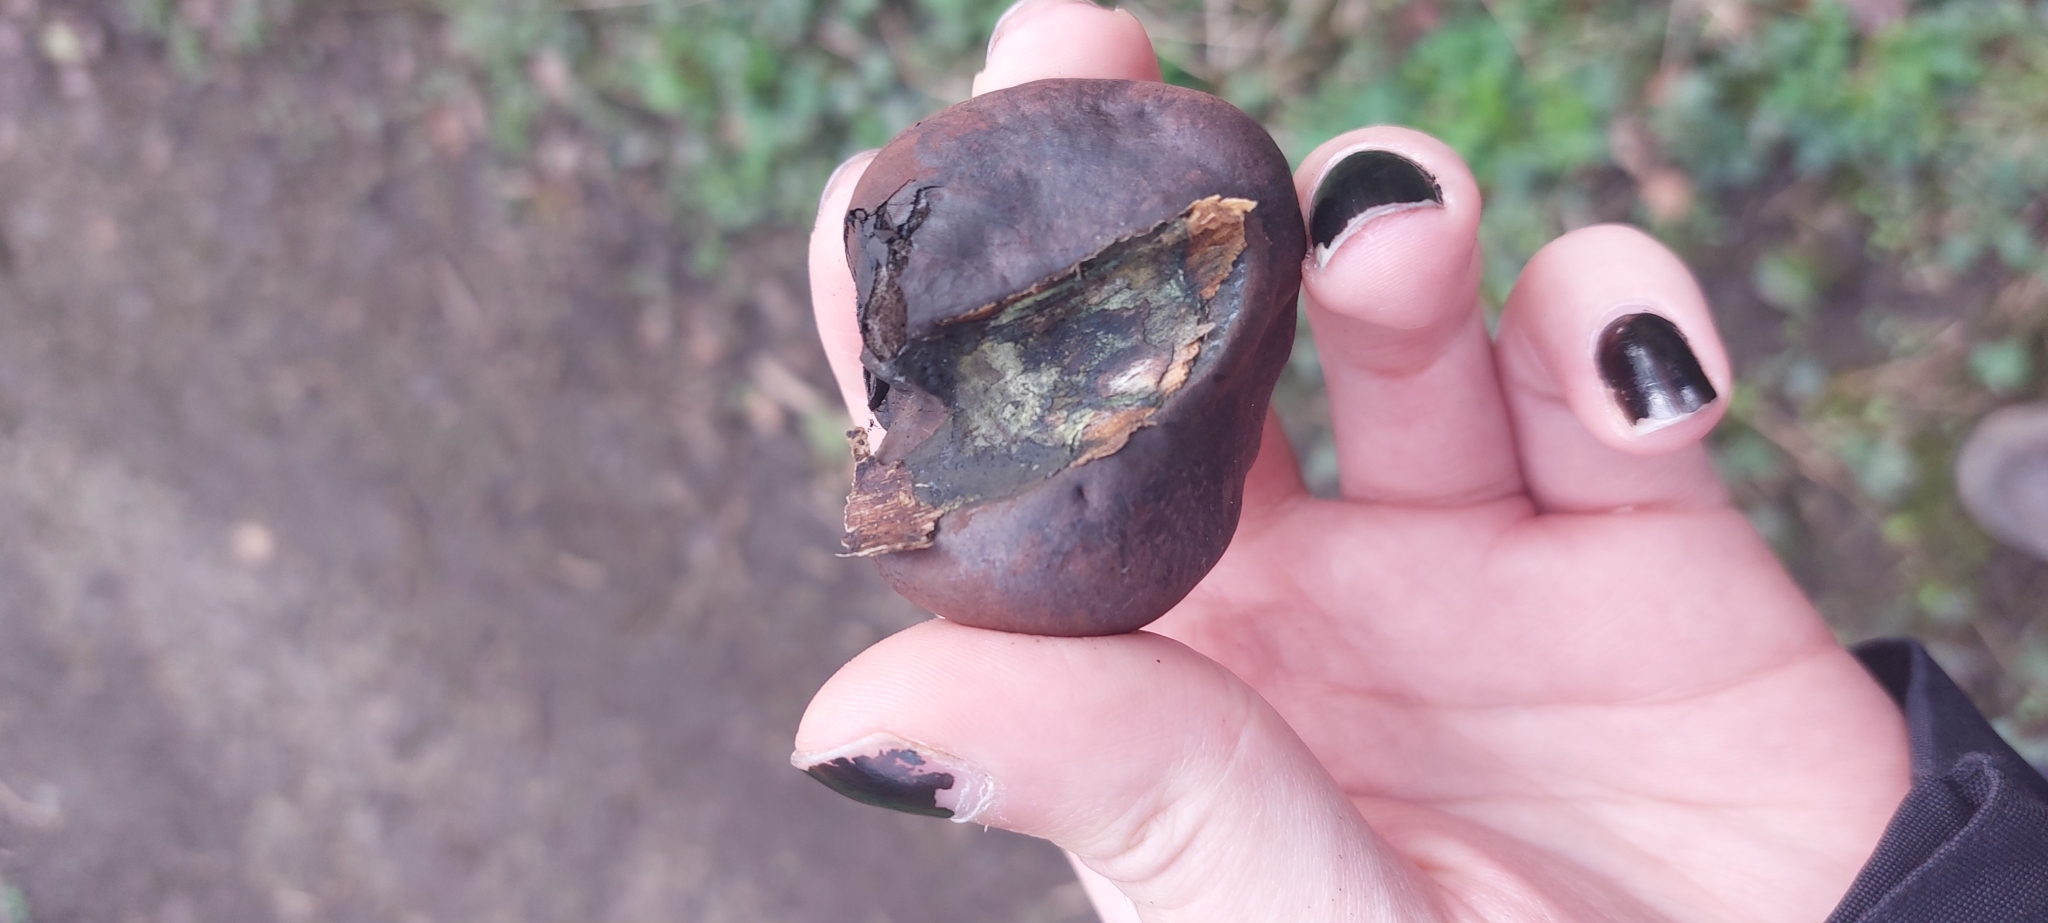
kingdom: Fungi
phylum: Ascomycota
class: Sordariomycetes
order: Xylariales
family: Hypoxylaceae
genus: Daldinia
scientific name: Daldinia concentrica
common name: Cramp balls
